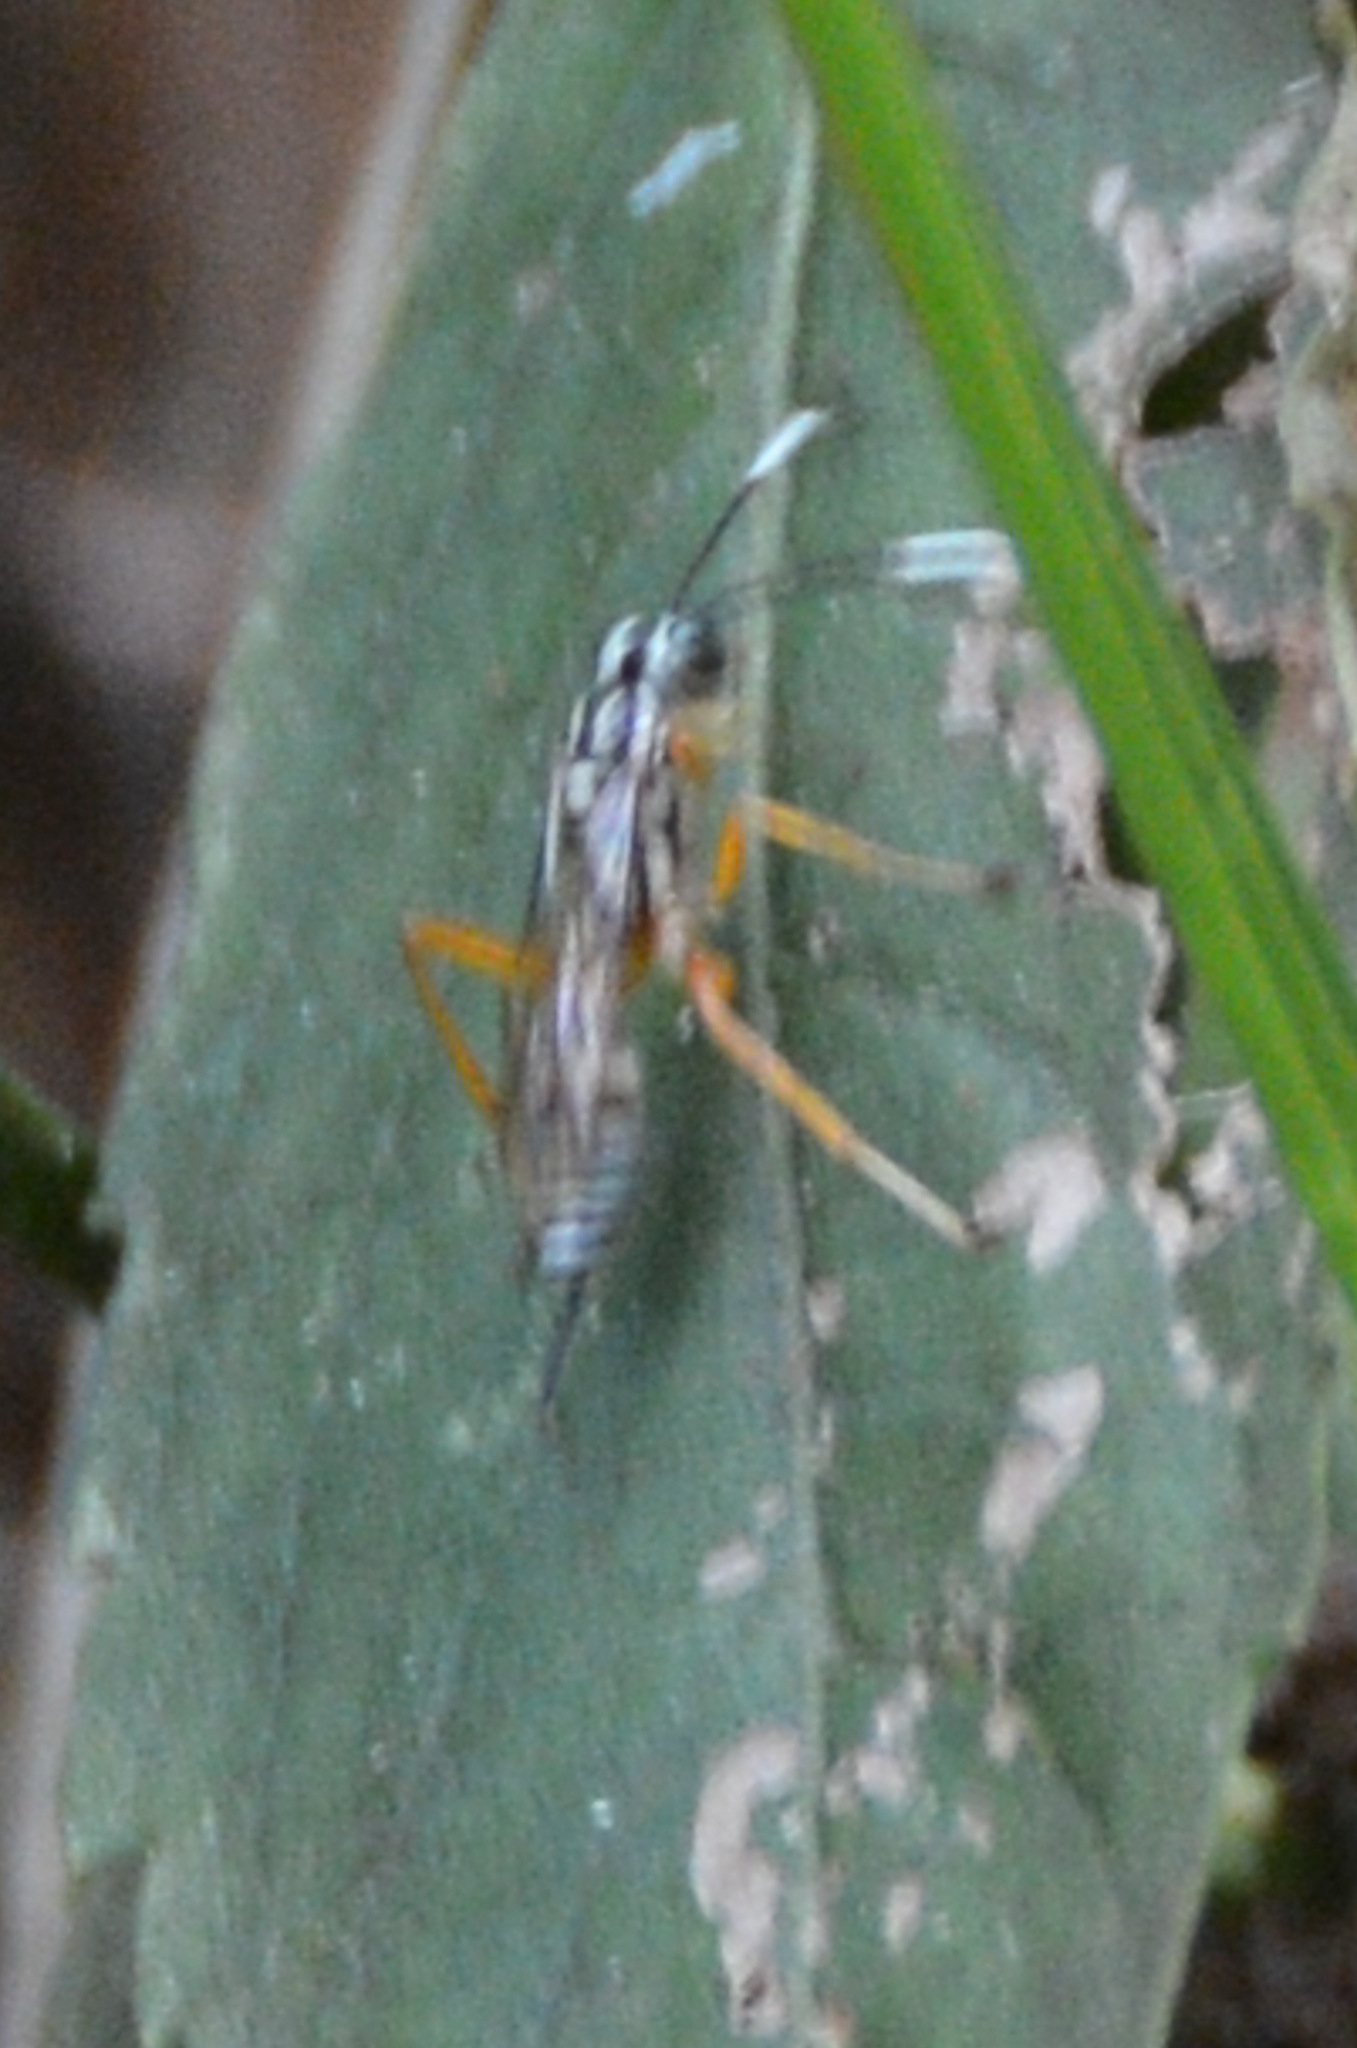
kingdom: Animalia
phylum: Arthropoda
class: Insecta
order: Hymenoptera
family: Ichneumonidae
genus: Lymeon
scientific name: Lymeon orbus
